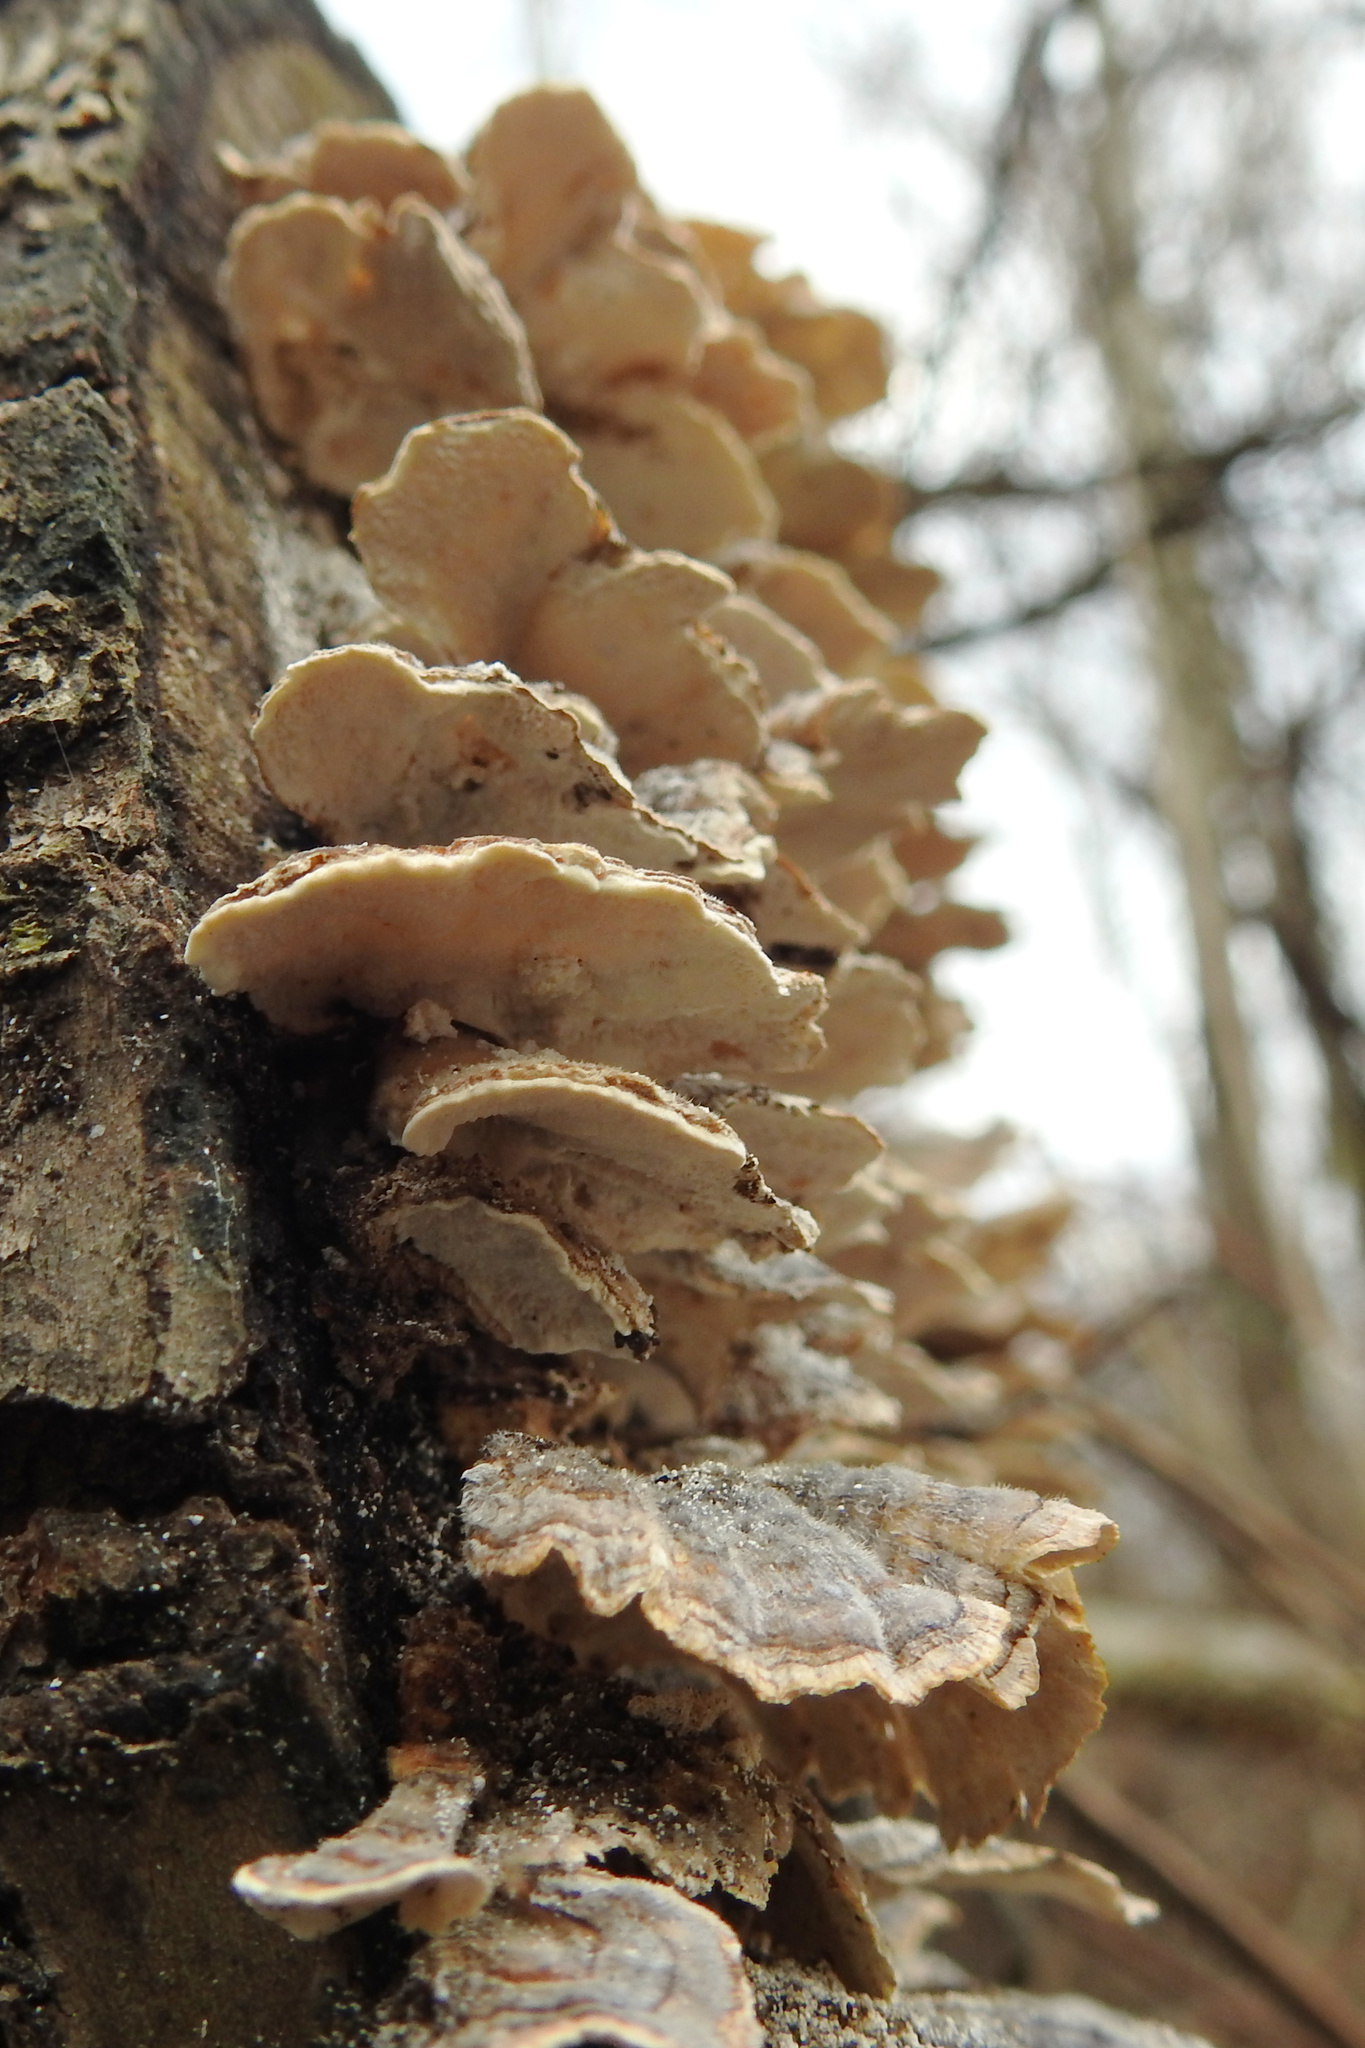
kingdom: Fungi
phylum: Basidiomycota
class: Agaricomycetes
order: Polyporales
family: Polyporaceae
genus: Trametes
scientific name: Trametes versicolor
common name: Turkeytail
